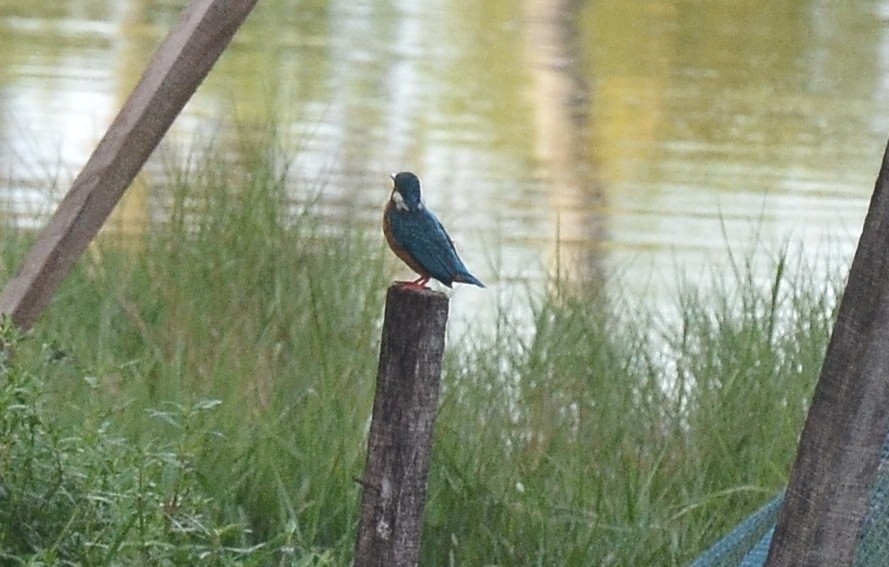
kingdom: Animalia
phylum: Chordata
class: Aves
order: Coraciiformes
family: Alcedinidae
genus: Alcedo
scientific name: Alcedo atthis
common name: Common kingfisher
